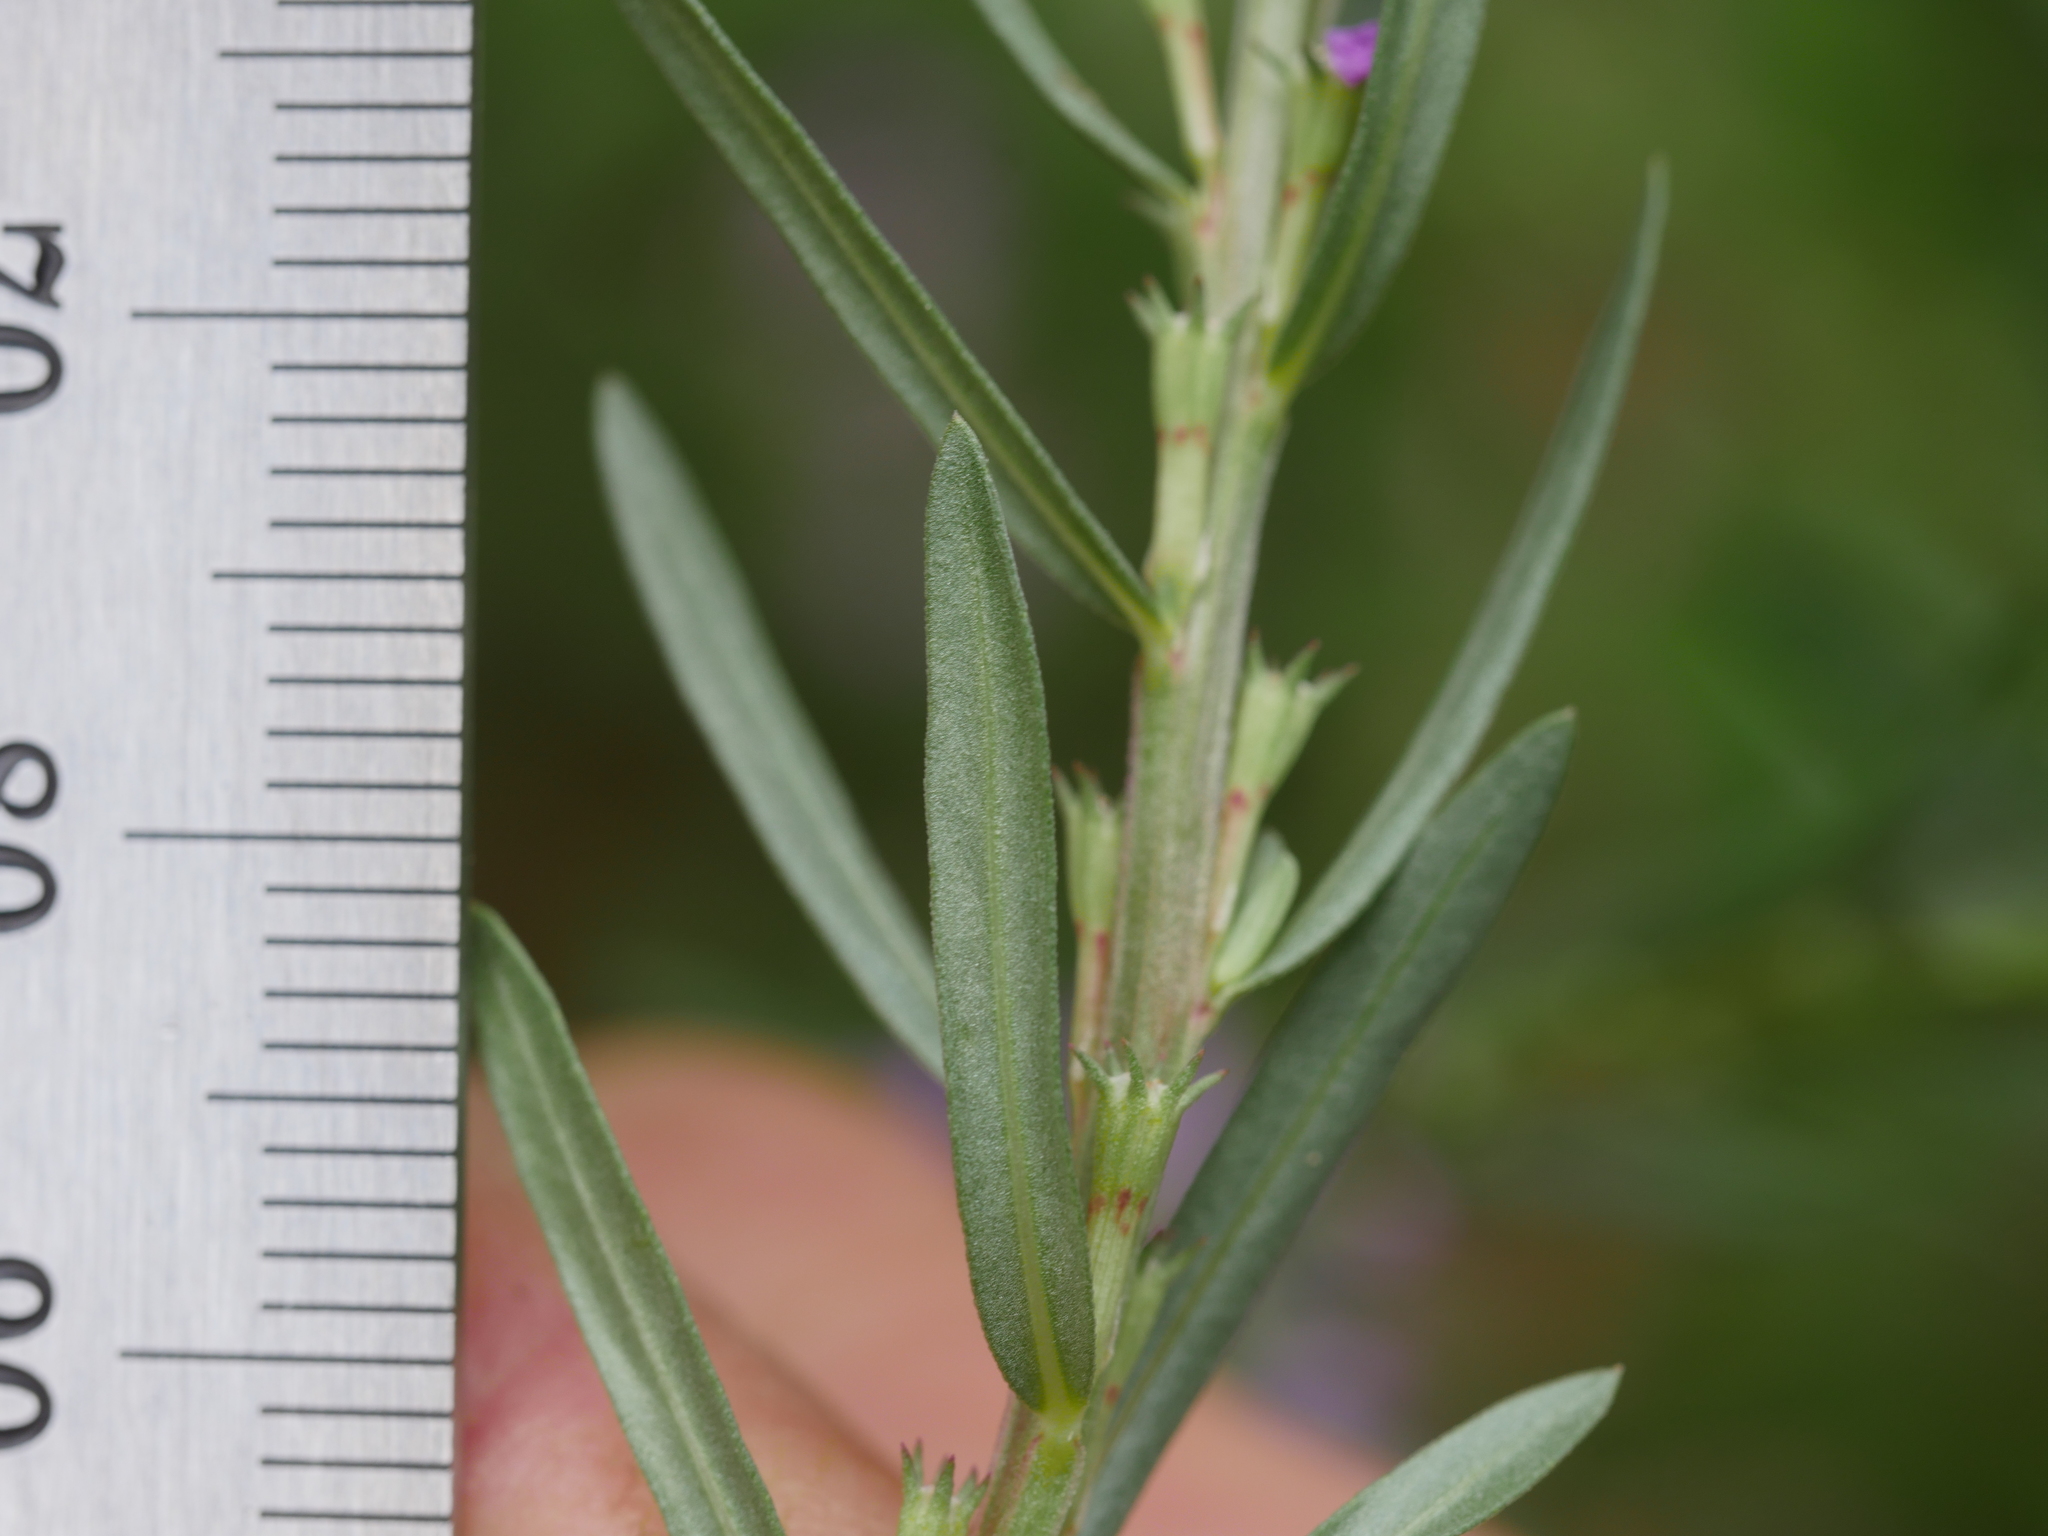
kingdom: Plantae
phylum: Tracheophyta
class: Magnoliopsida
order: Myrtales
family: Lythraceae
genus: Lythrum
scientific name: Lythrum hyssopifolia
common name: Grass-poly
